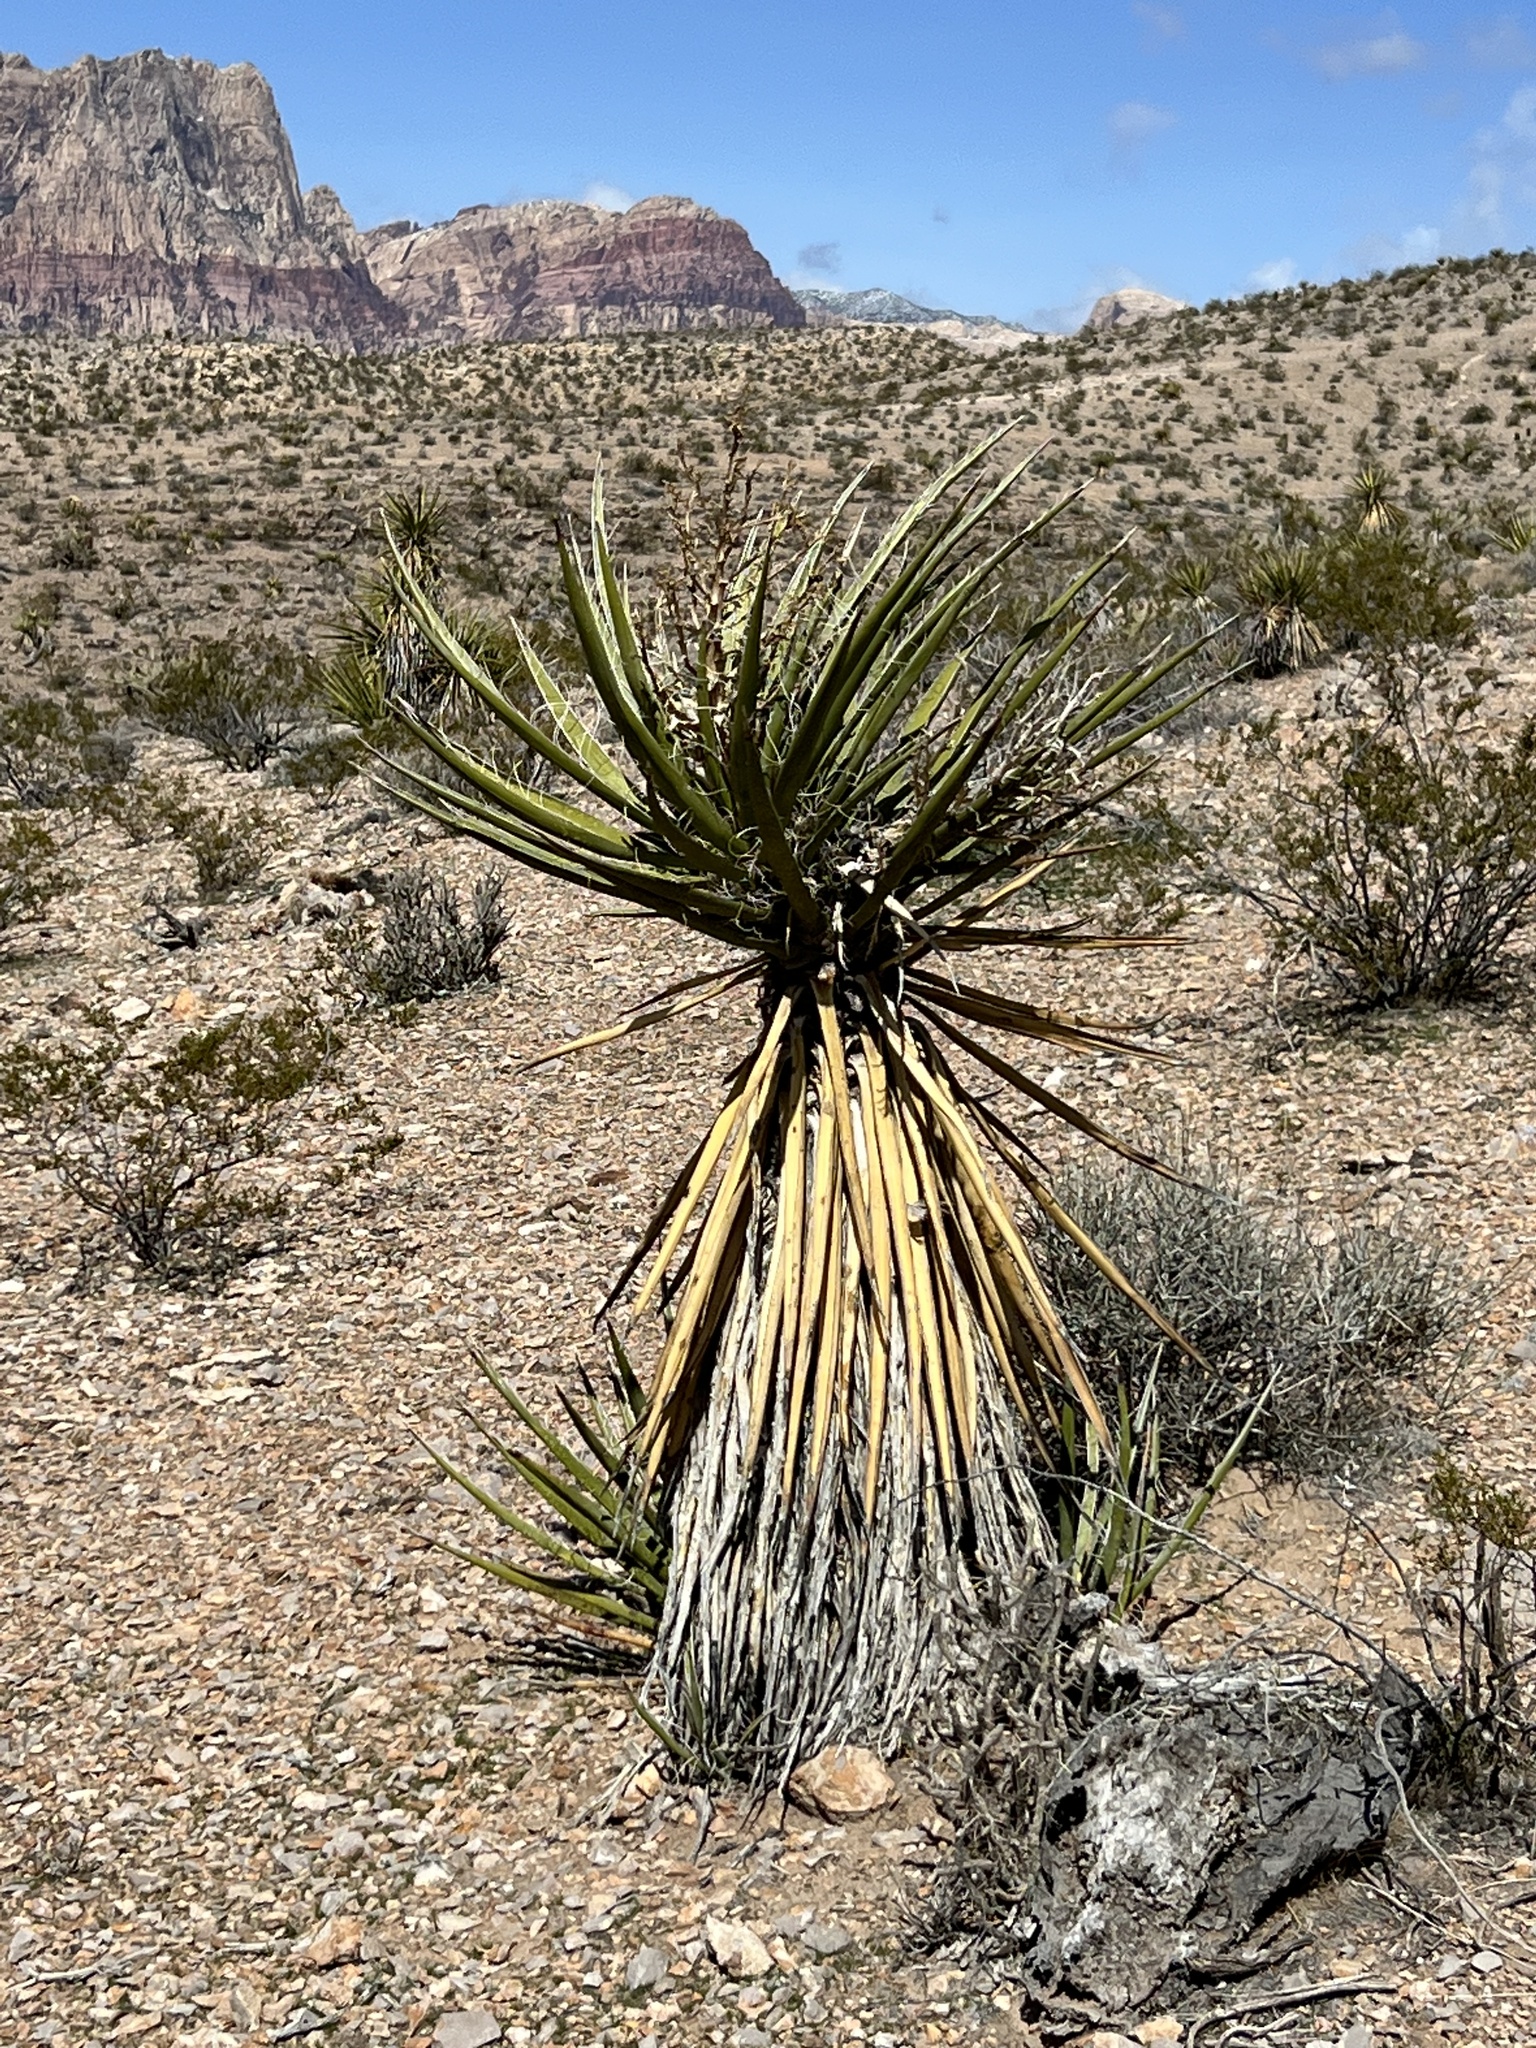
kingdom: Plantae
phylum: Tracheophyta
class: Liliopsida
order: Asparagales
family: Asparagaceae
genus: Yucca
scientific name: Yucca schidigera
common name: Mojave yucca
